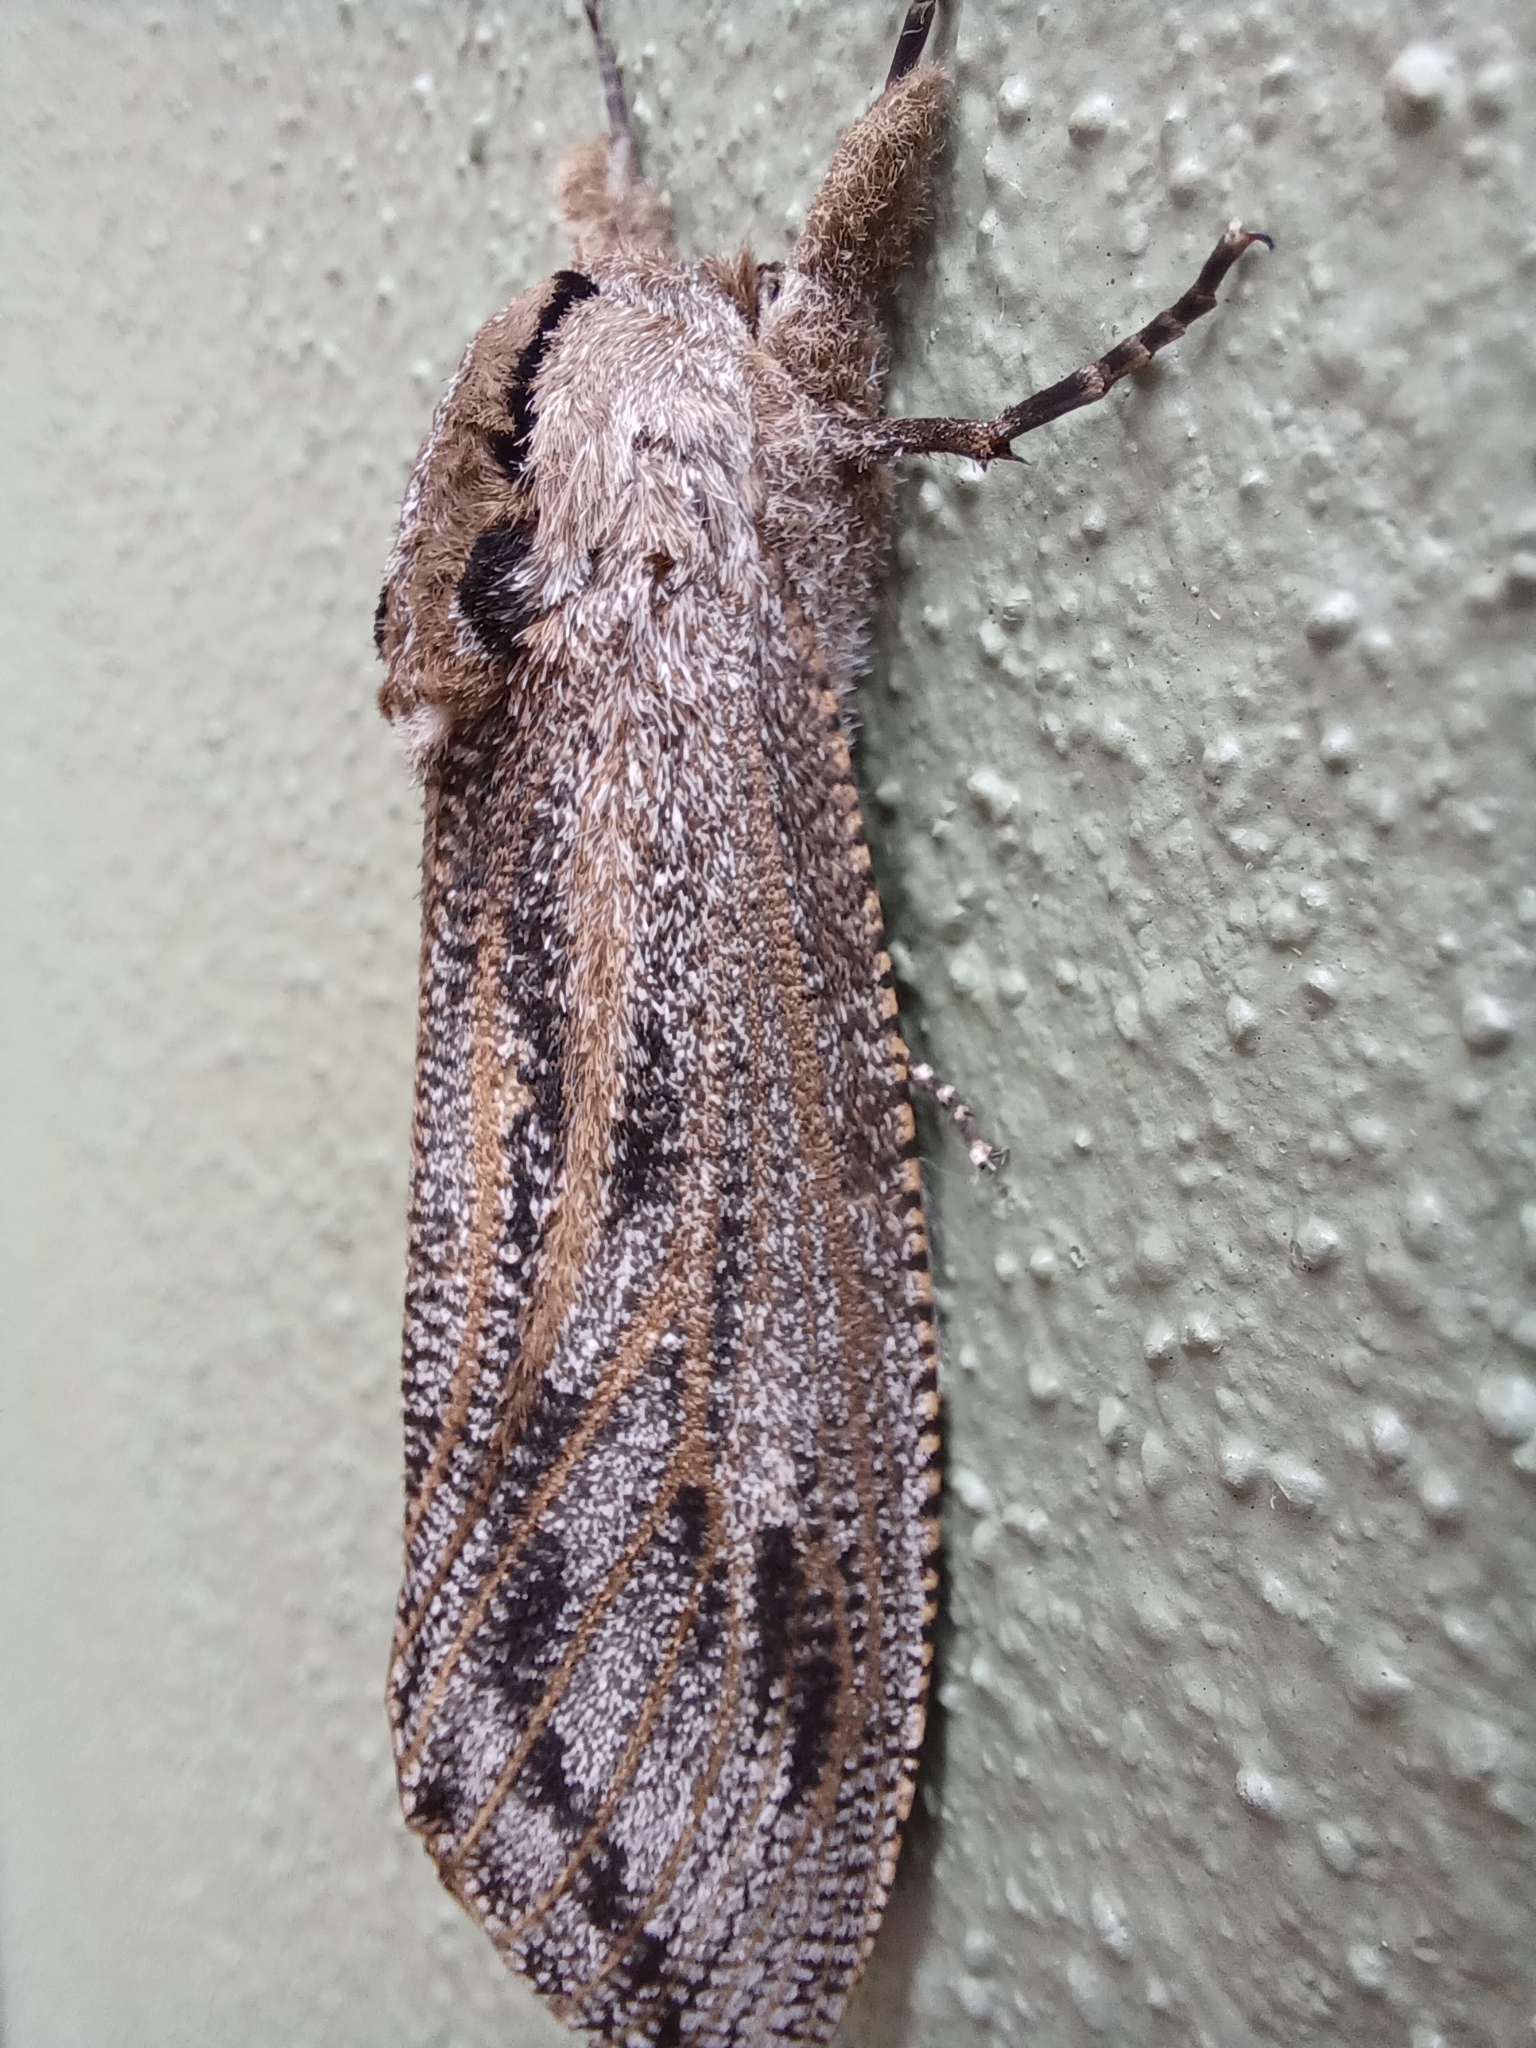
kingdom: Animalia
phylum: Arthropoda
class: Insecta
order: Lepidoptera
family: Cossidae
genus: Endoxyla
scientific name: Endoxyla liturata
